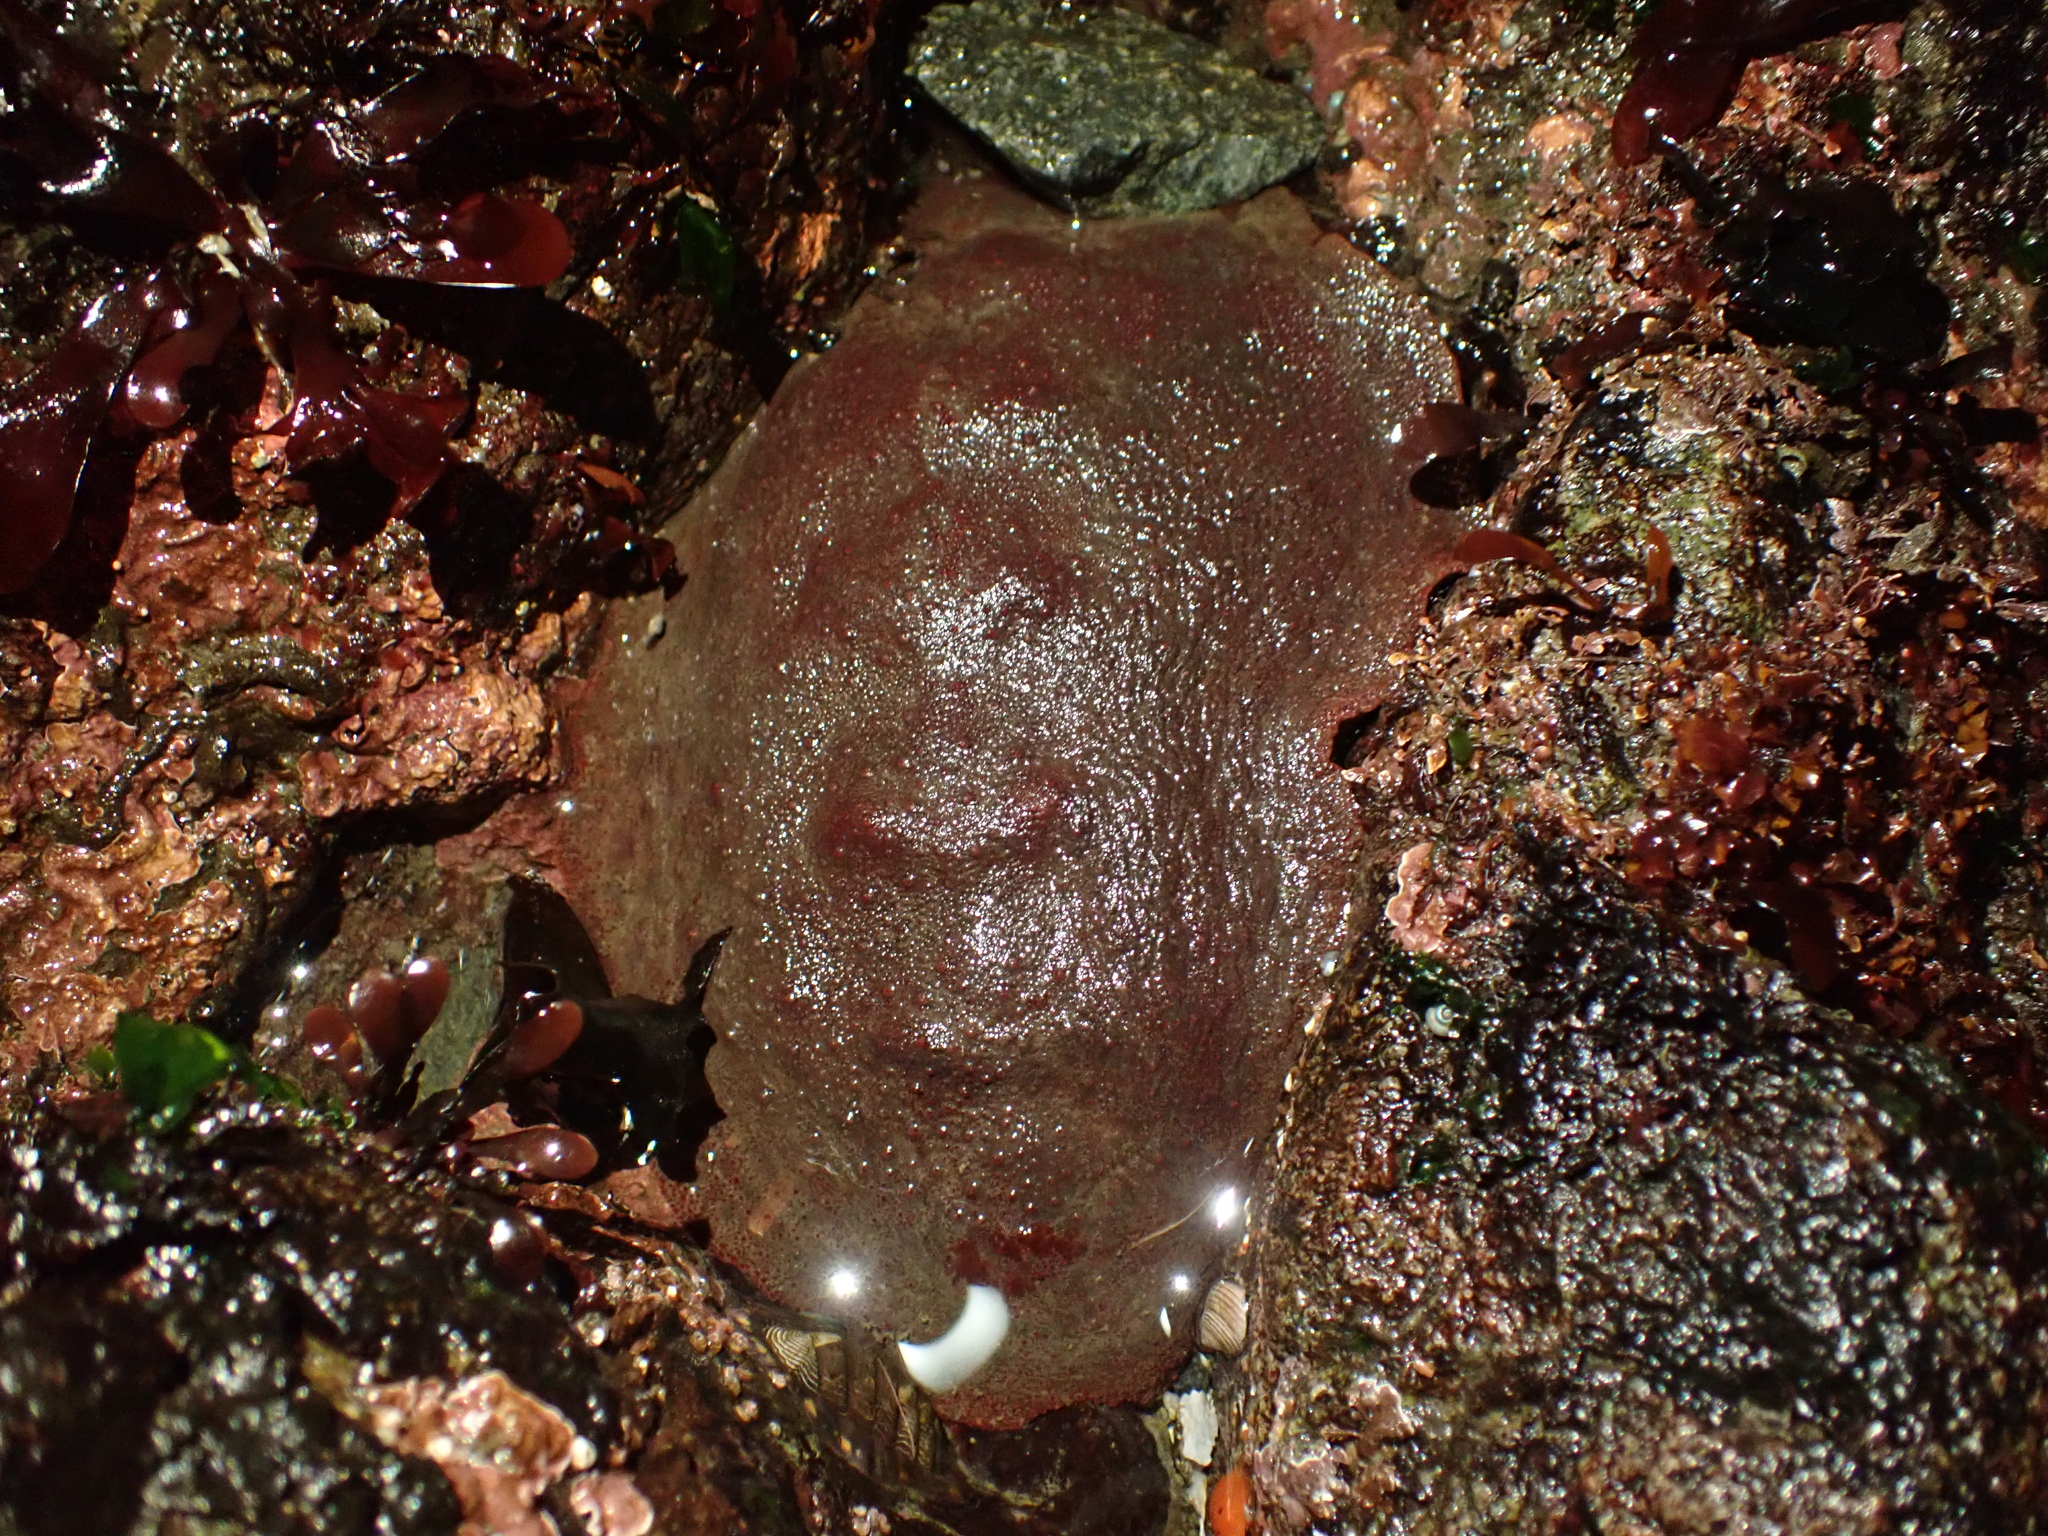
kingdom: Animalia
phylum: Mollusca
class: Polyplacophora
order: Chitonida
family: Acanthochitonidae
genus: Cryptochiton
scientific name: Cryptochiton stelleri
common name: Giant pacific chiton
